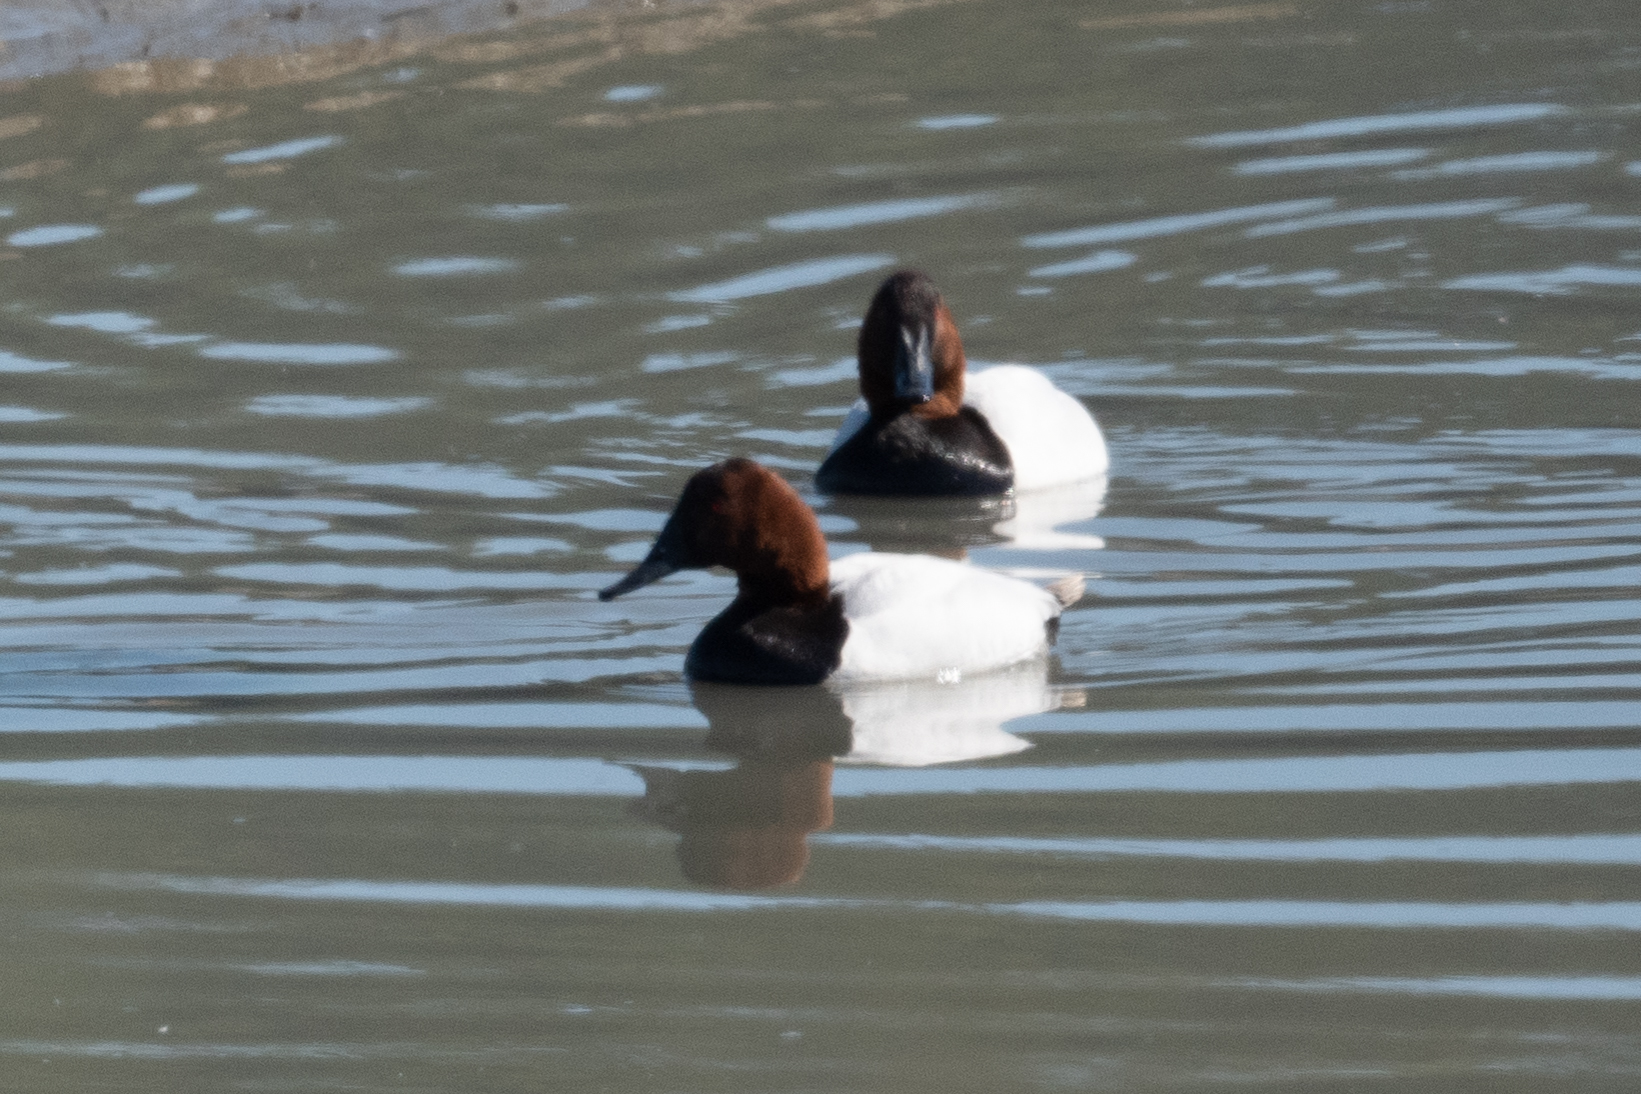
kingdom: Animalia
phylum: Chordata
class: Aves
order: Anseriformes
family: Anatidae
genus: Aythya
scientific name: Aythya valisineria
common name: Canvasback
